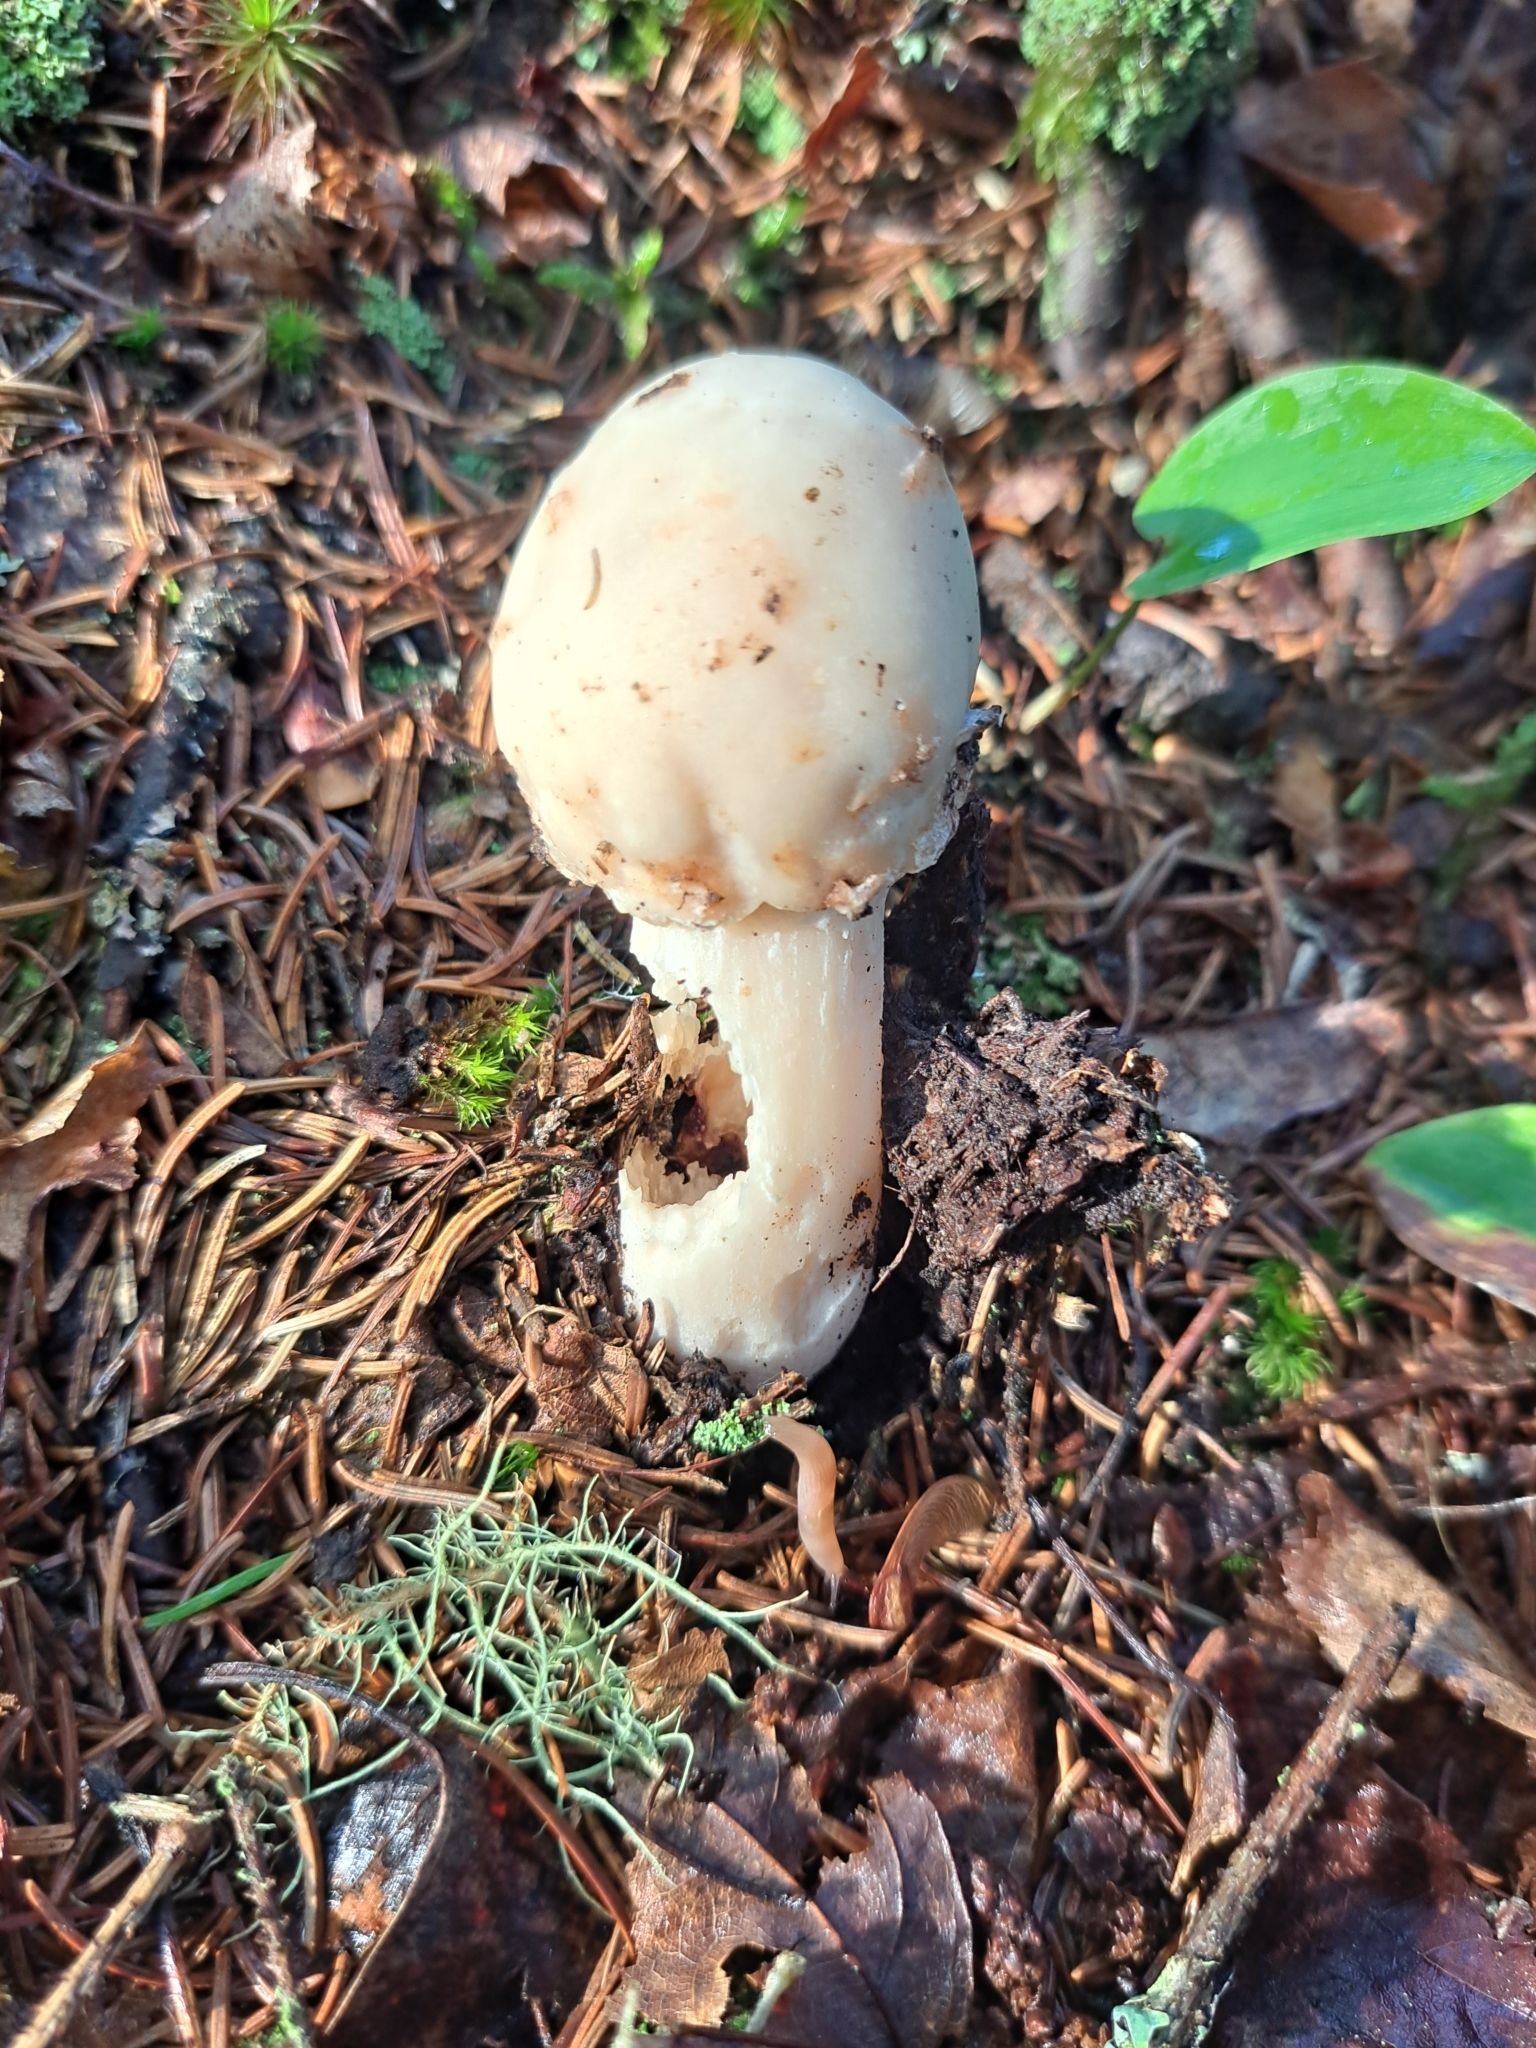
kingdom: Fungi
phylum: Ascomycota
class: Sordariomycetes
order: Hypocreales
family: Hypocreaceae
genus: Hypomyces
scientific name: Hypomyces hyalinus
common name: Amanita mold
